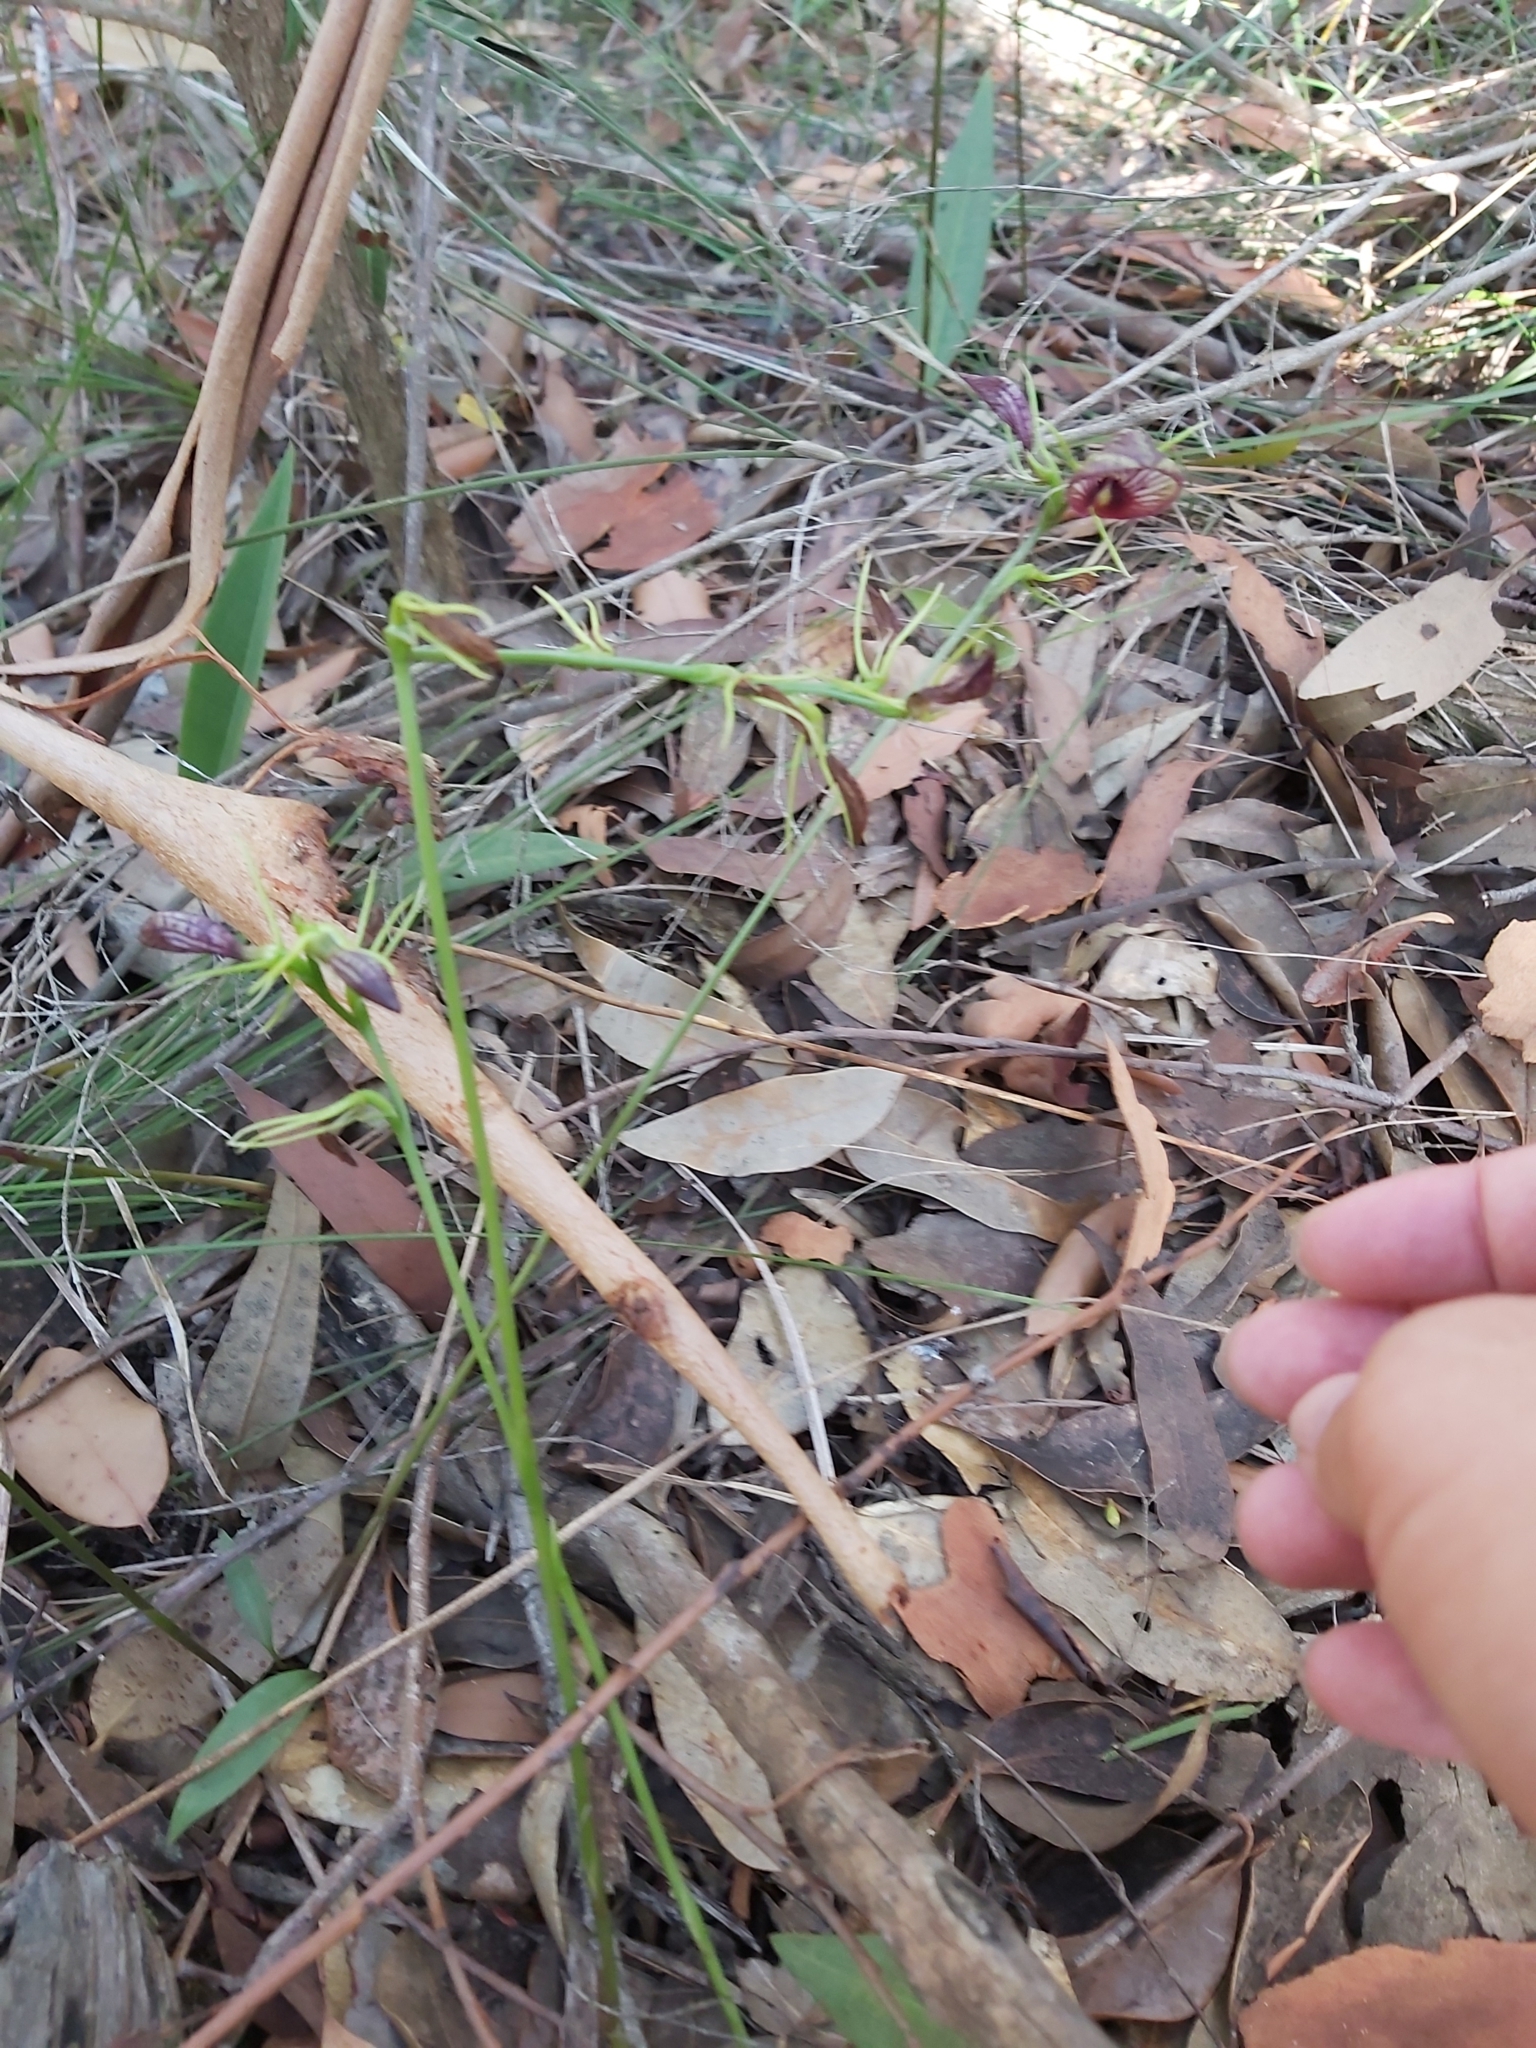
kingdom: Plantae
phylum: Tracheophyta
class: Liliopsida
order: Asparagales
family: Orchidaceae
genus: Cryptostylis
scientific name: Cryptostylis erecta
